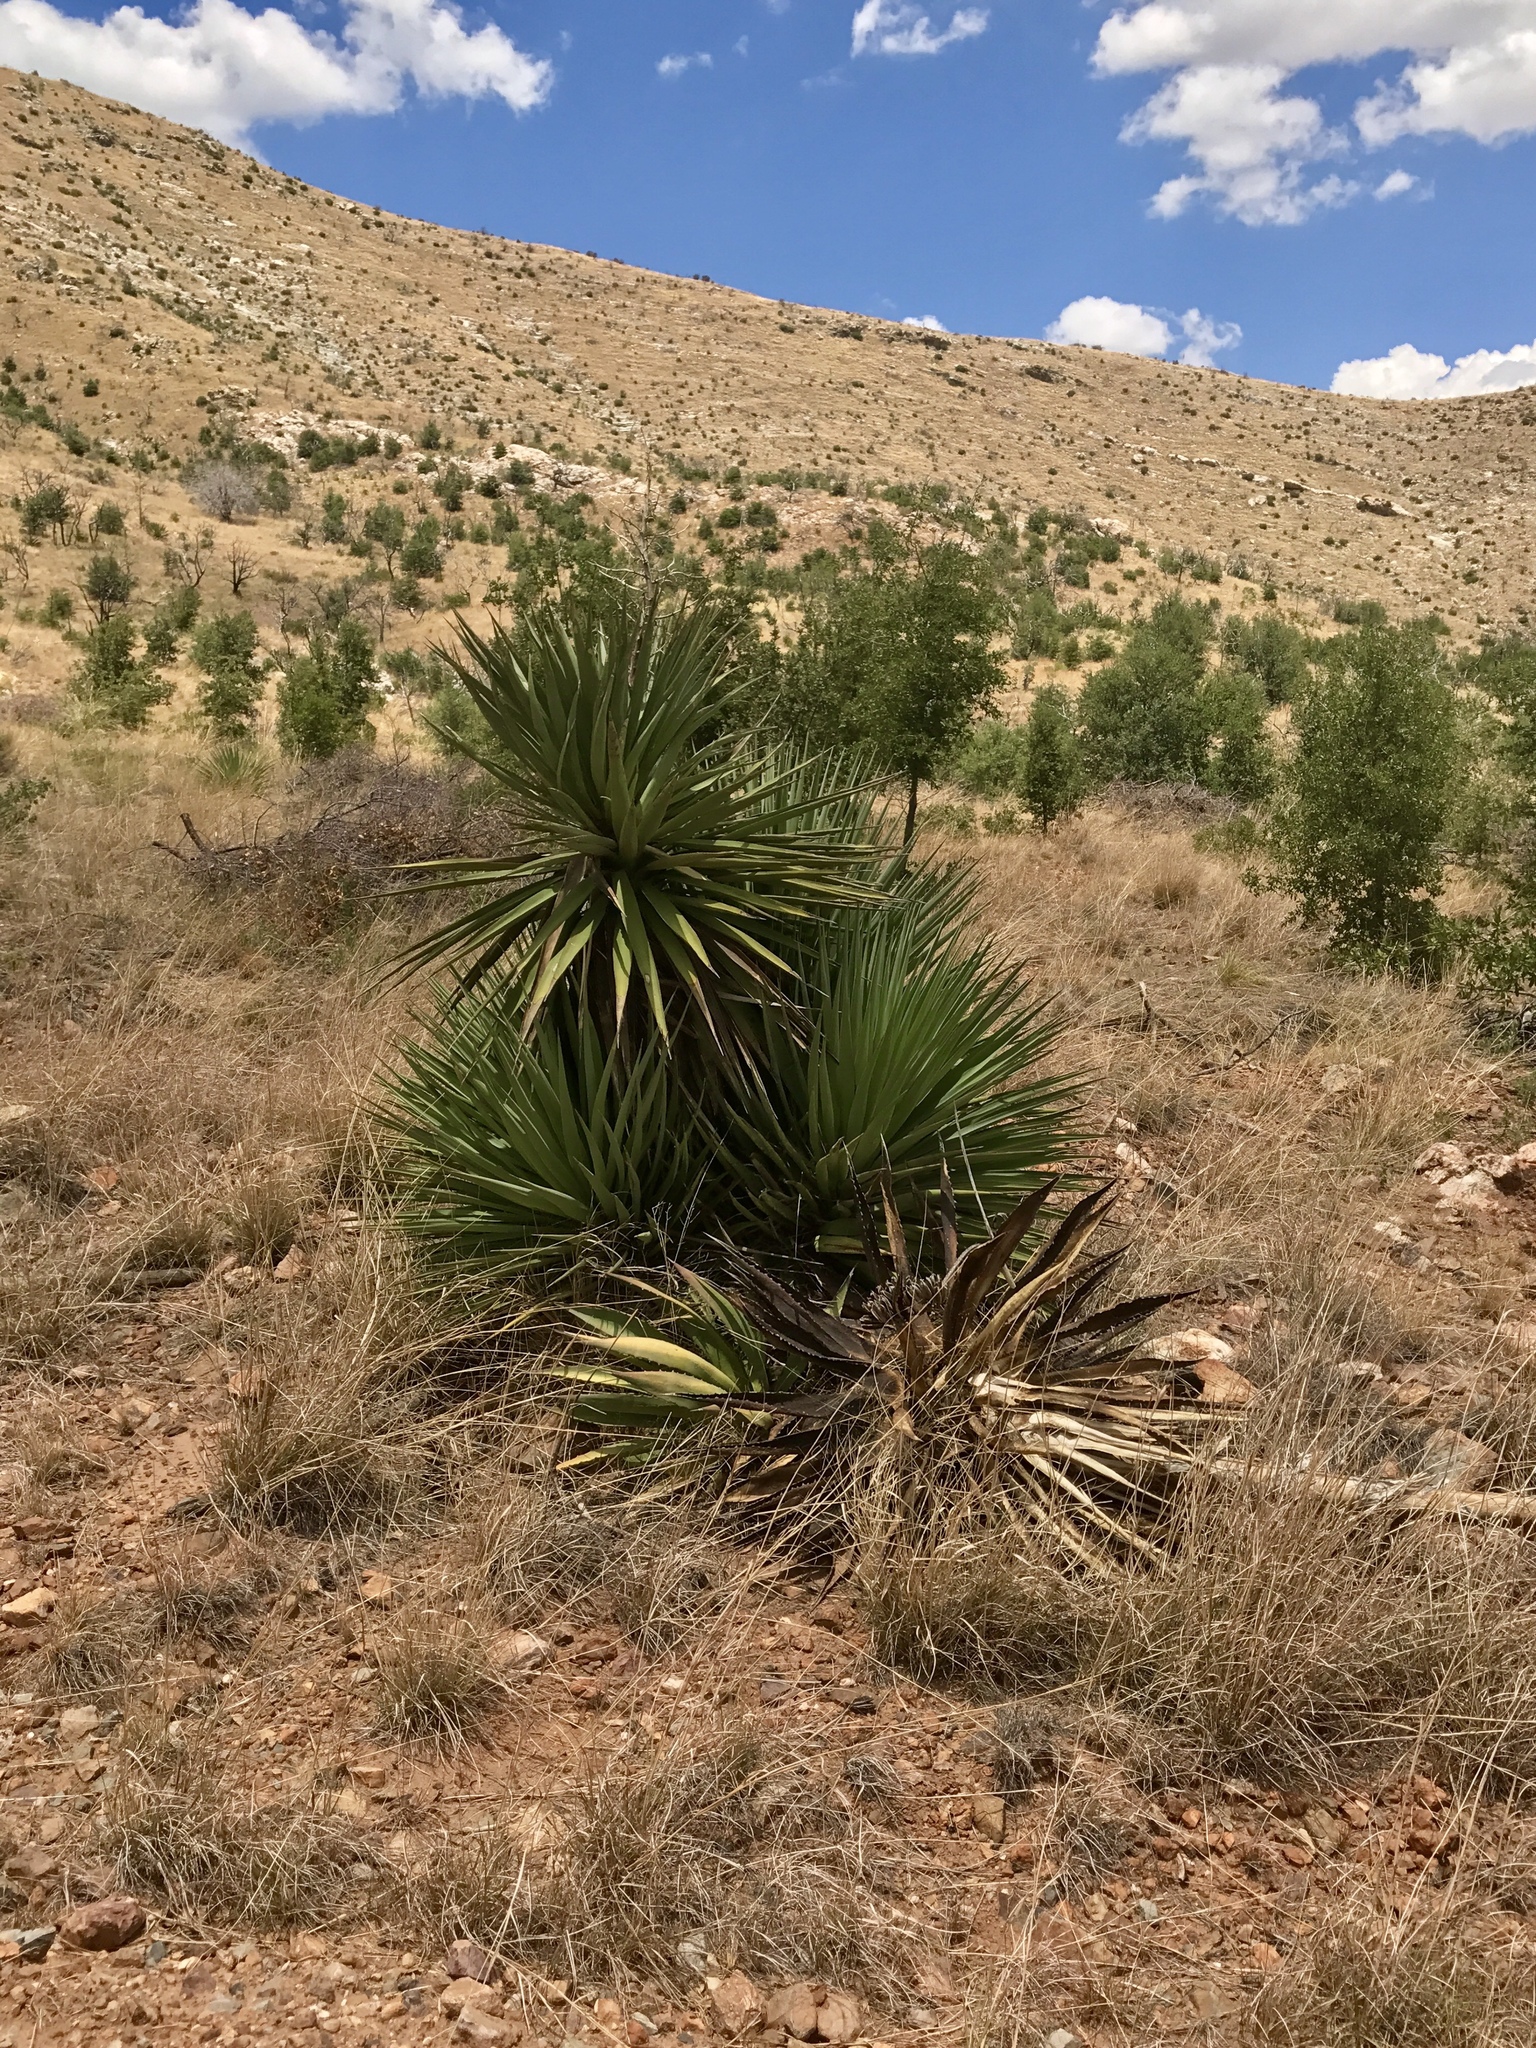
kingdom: Plantae
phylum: Tracheophyta
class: Liliopsida
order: Asparagales
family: Asparagaceae
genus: Yucca
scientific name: Yucca schottii
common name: Hoary yucca
